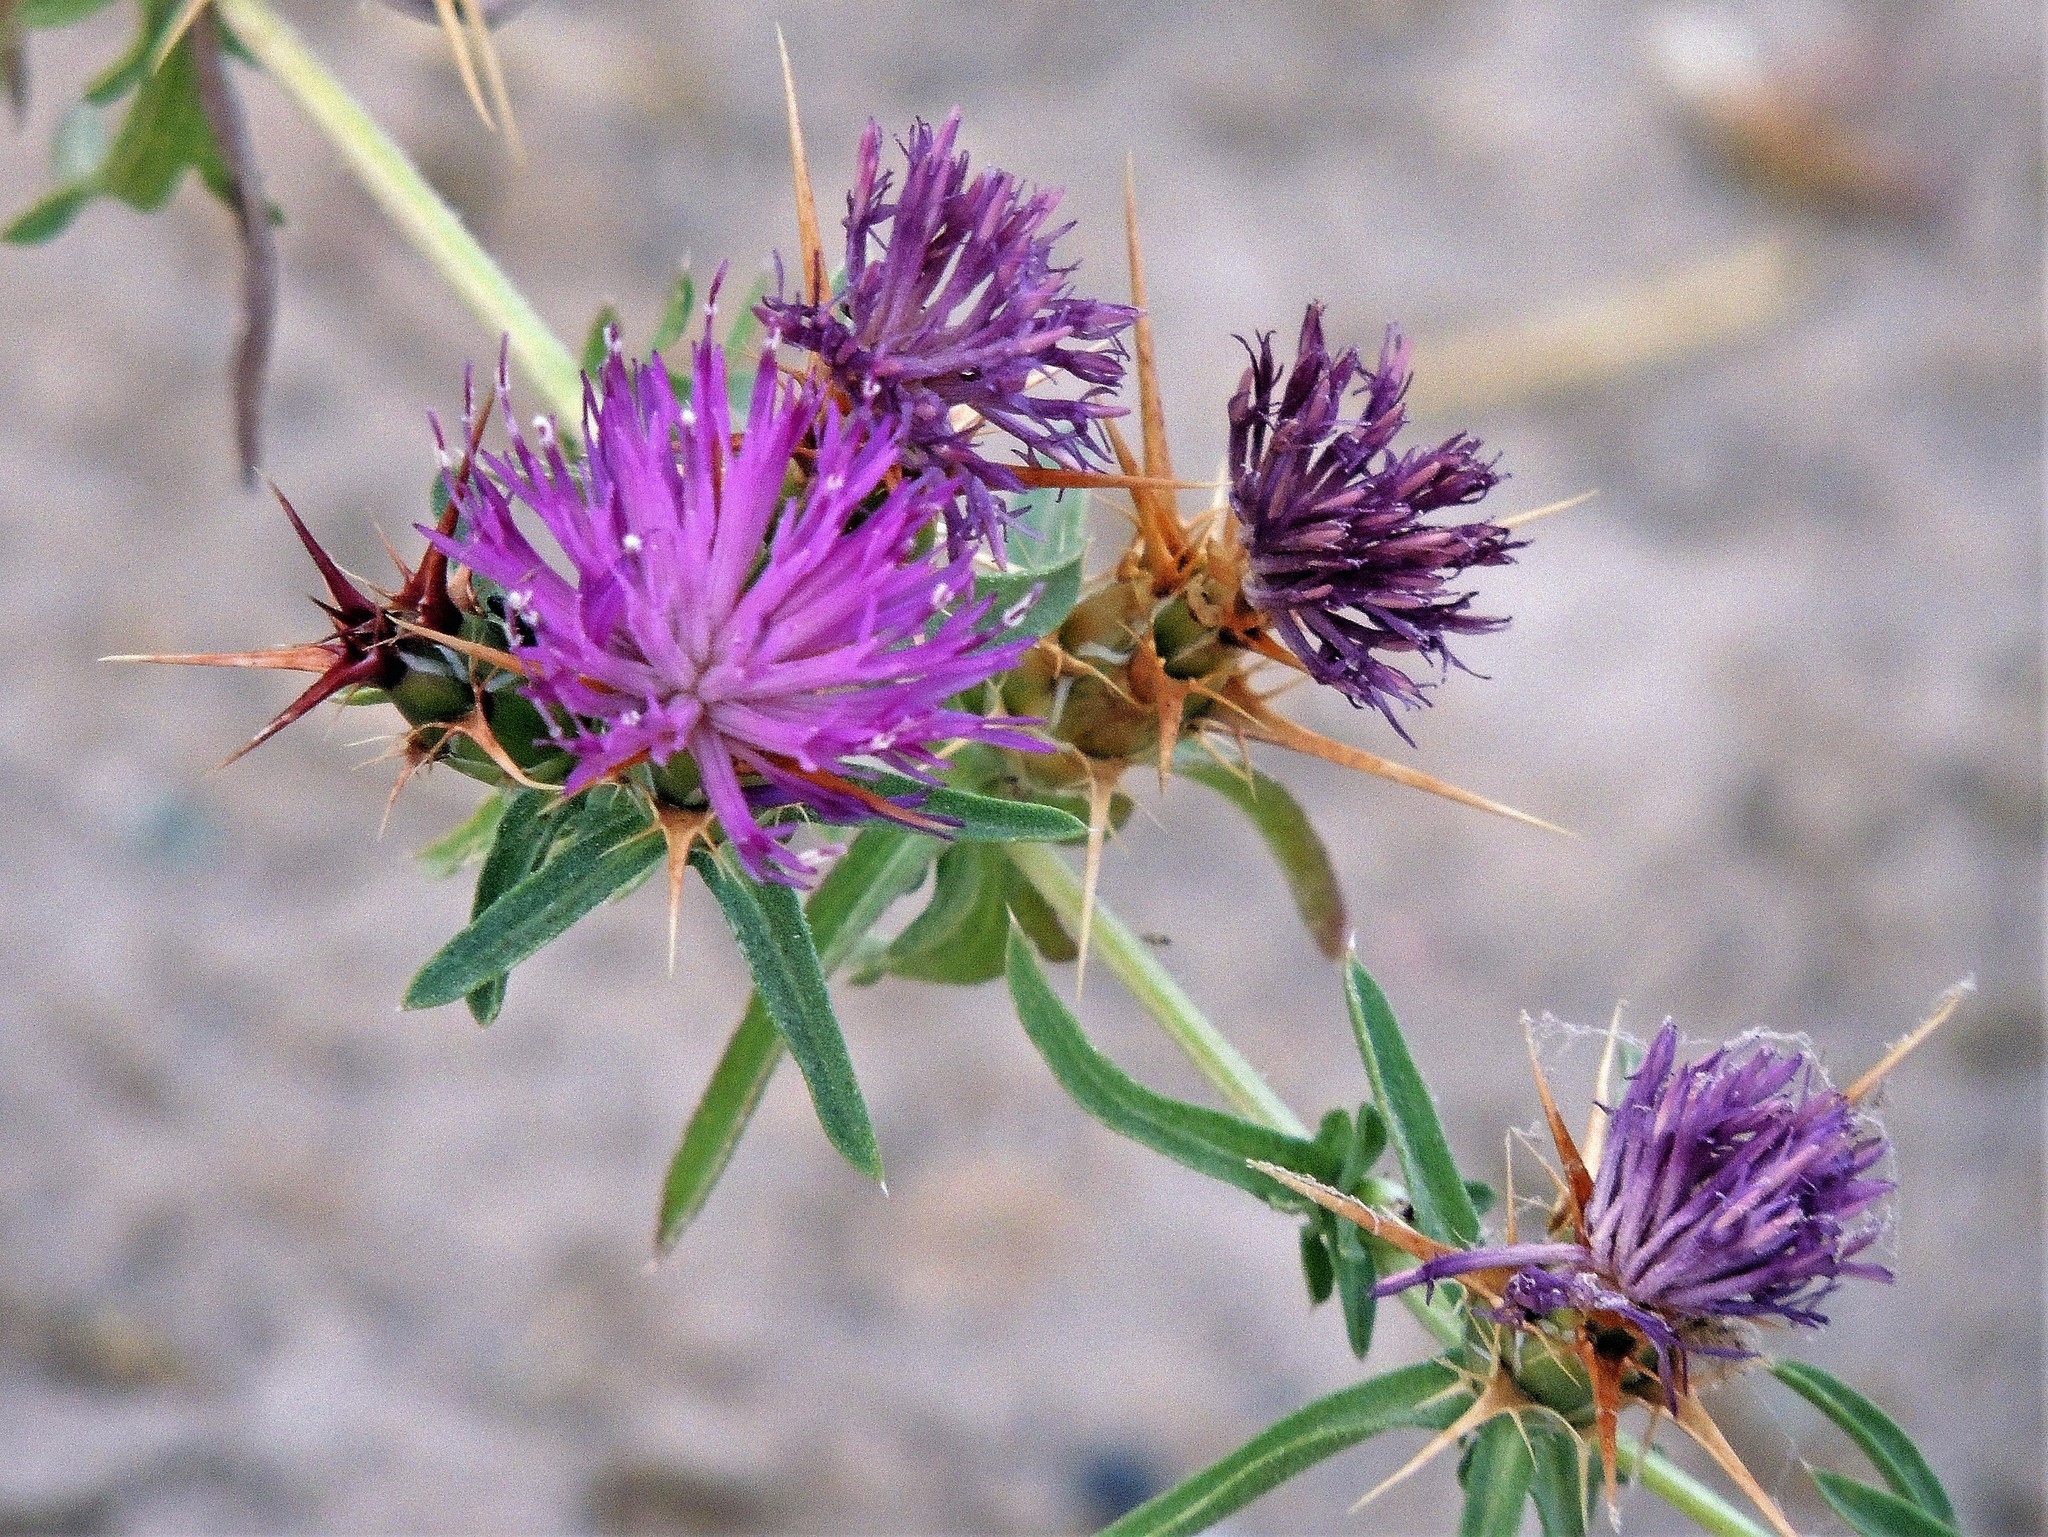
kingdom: Plantae
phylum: Tracheophyta
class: Magnoliopsida
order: Asterales
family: Asteraceae
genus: Centaurea
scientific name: Centaurea calcitrapa
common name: Red star-thistle
